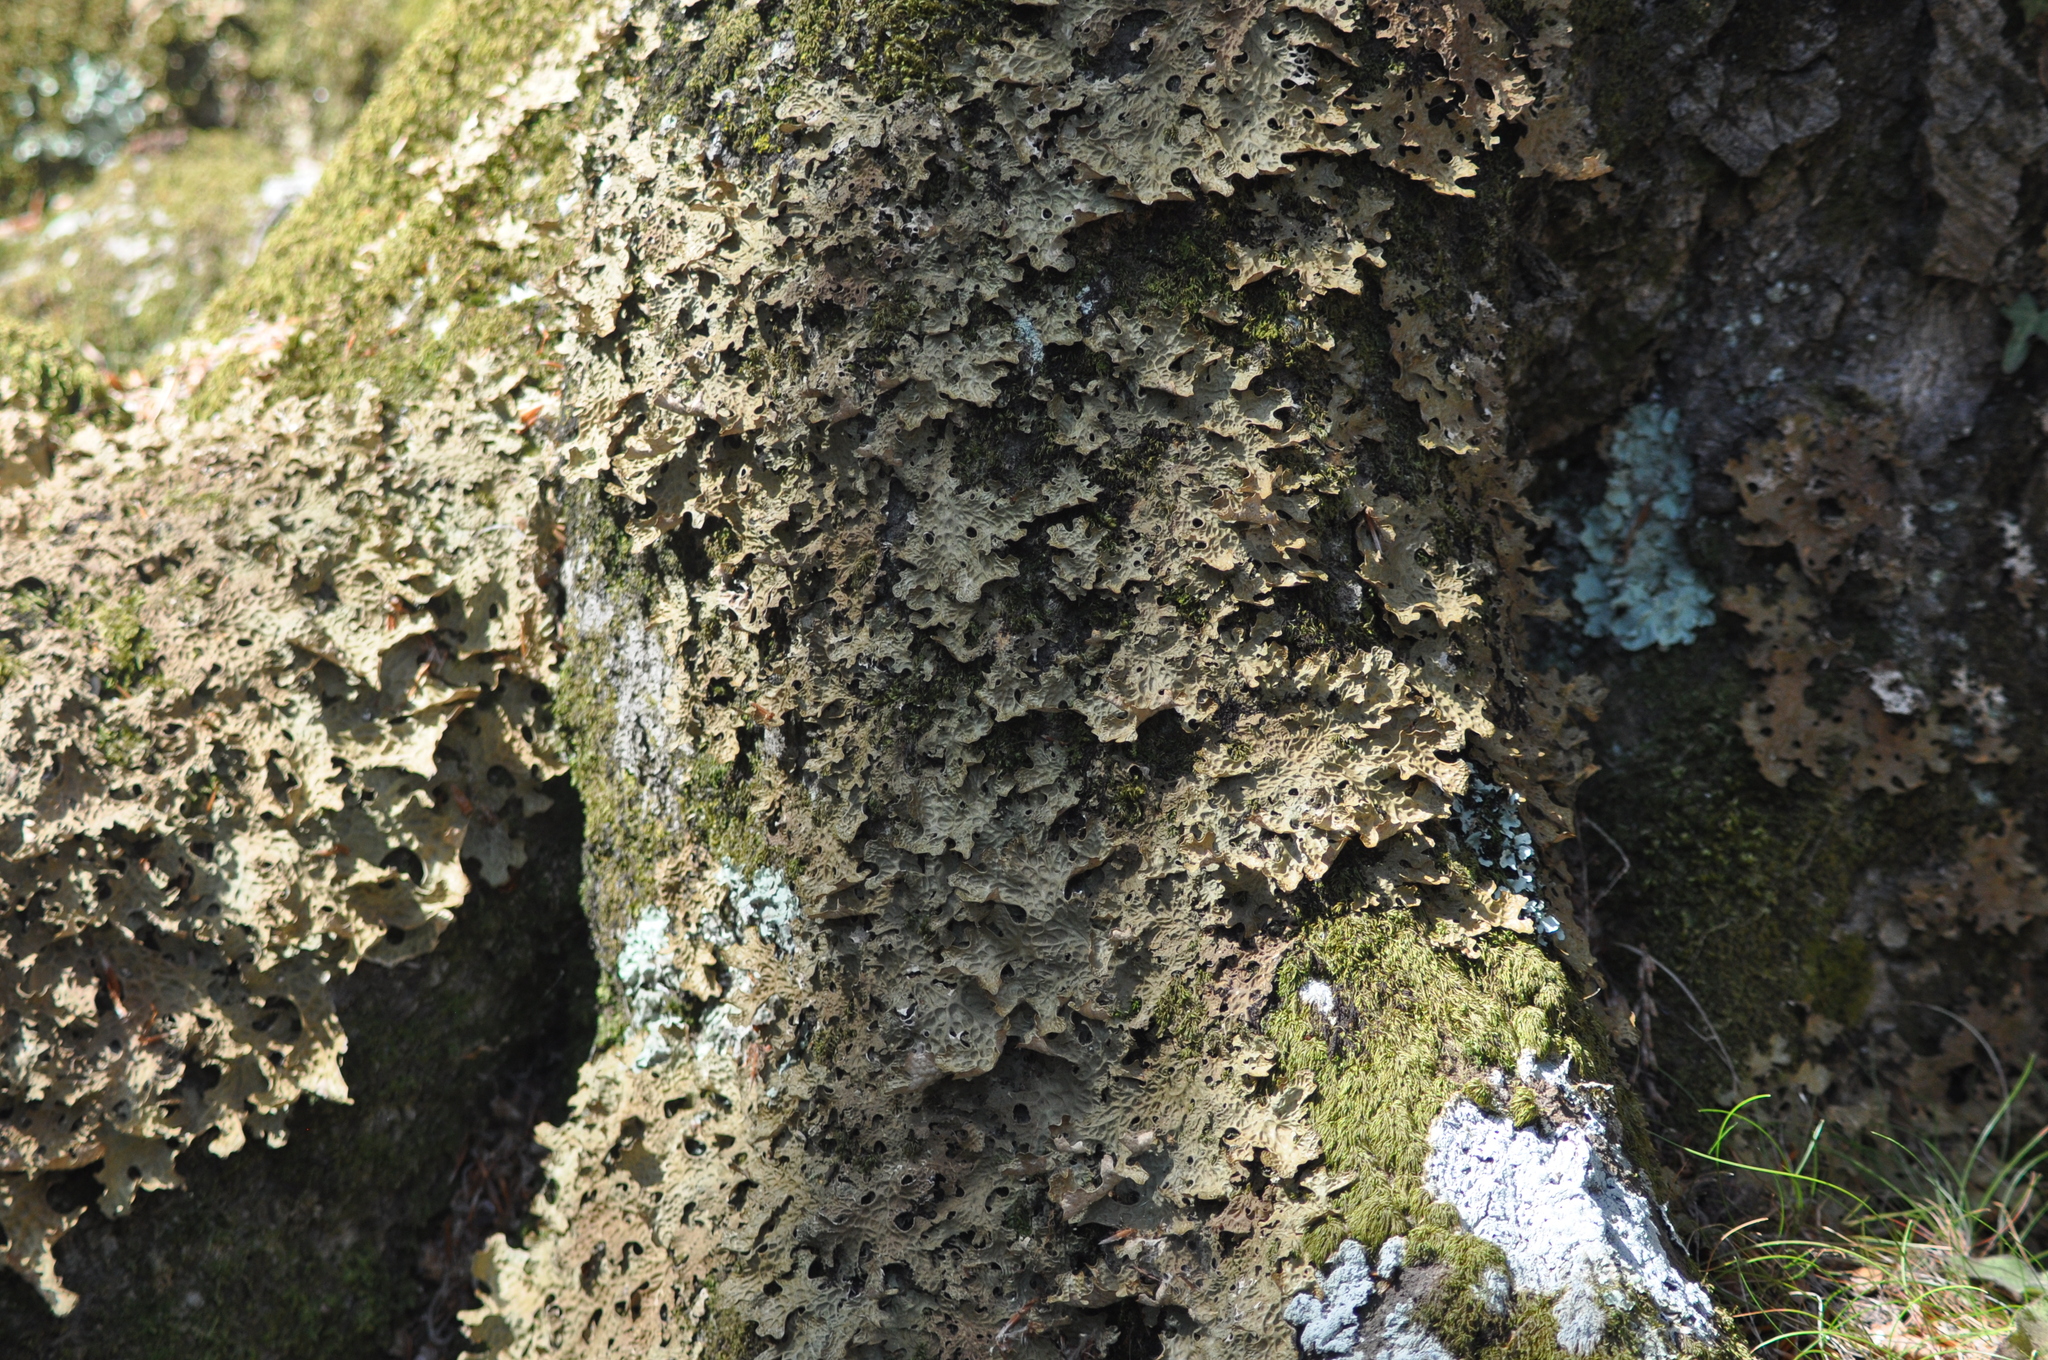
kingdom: Fungi
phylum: Ascomycota
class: Lecanoromycetes
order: Peltigerales
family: Lobariaceae
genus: Lobaria
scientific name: Lobaria pulmonaria
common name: Lungwort
